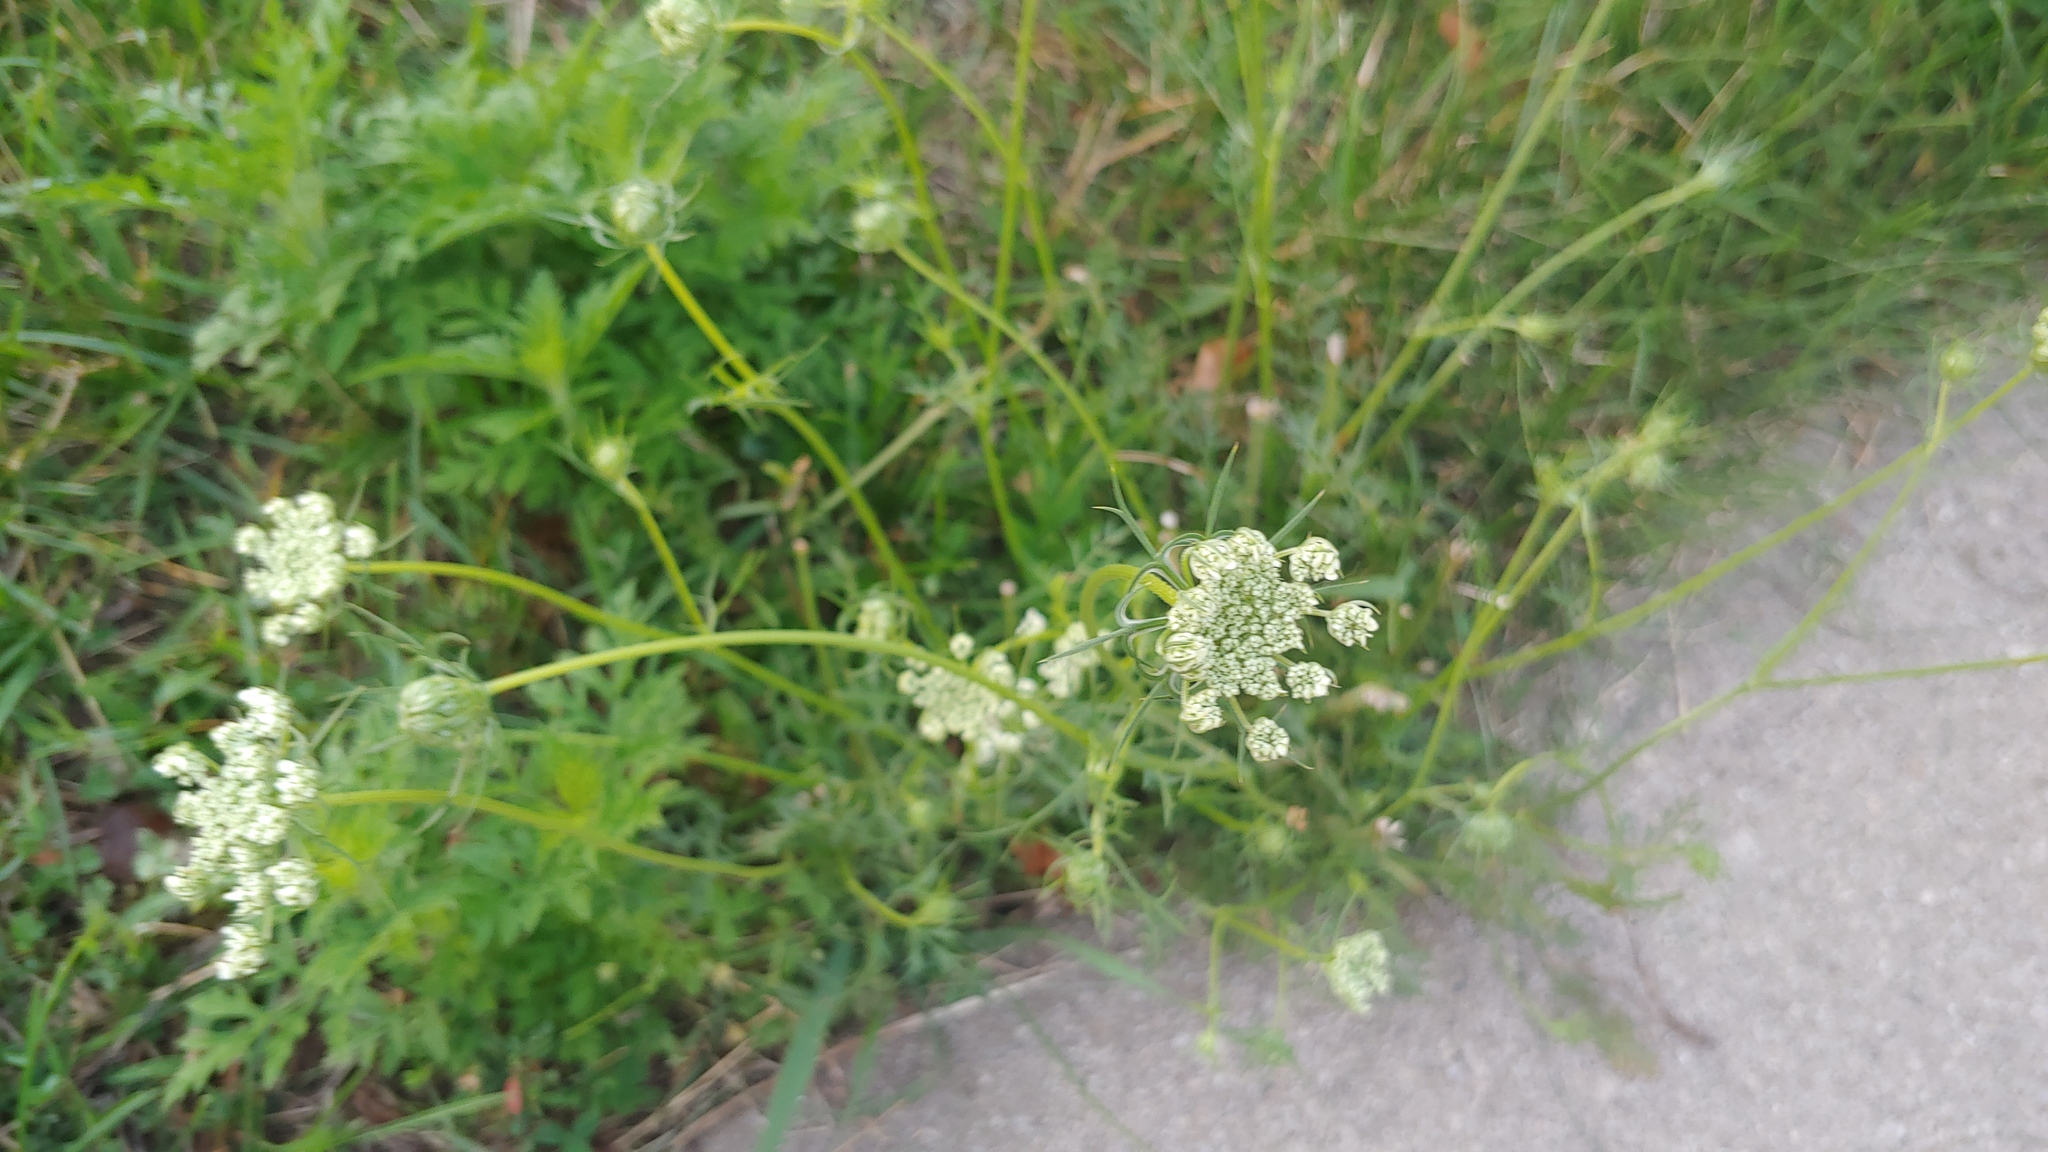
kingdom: Plantae
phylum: Tracheophyta
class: Magnoliopsida
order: Apiales
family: Apiaceae
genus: Daucus
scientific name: Daucus carota
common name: Wild carrot
